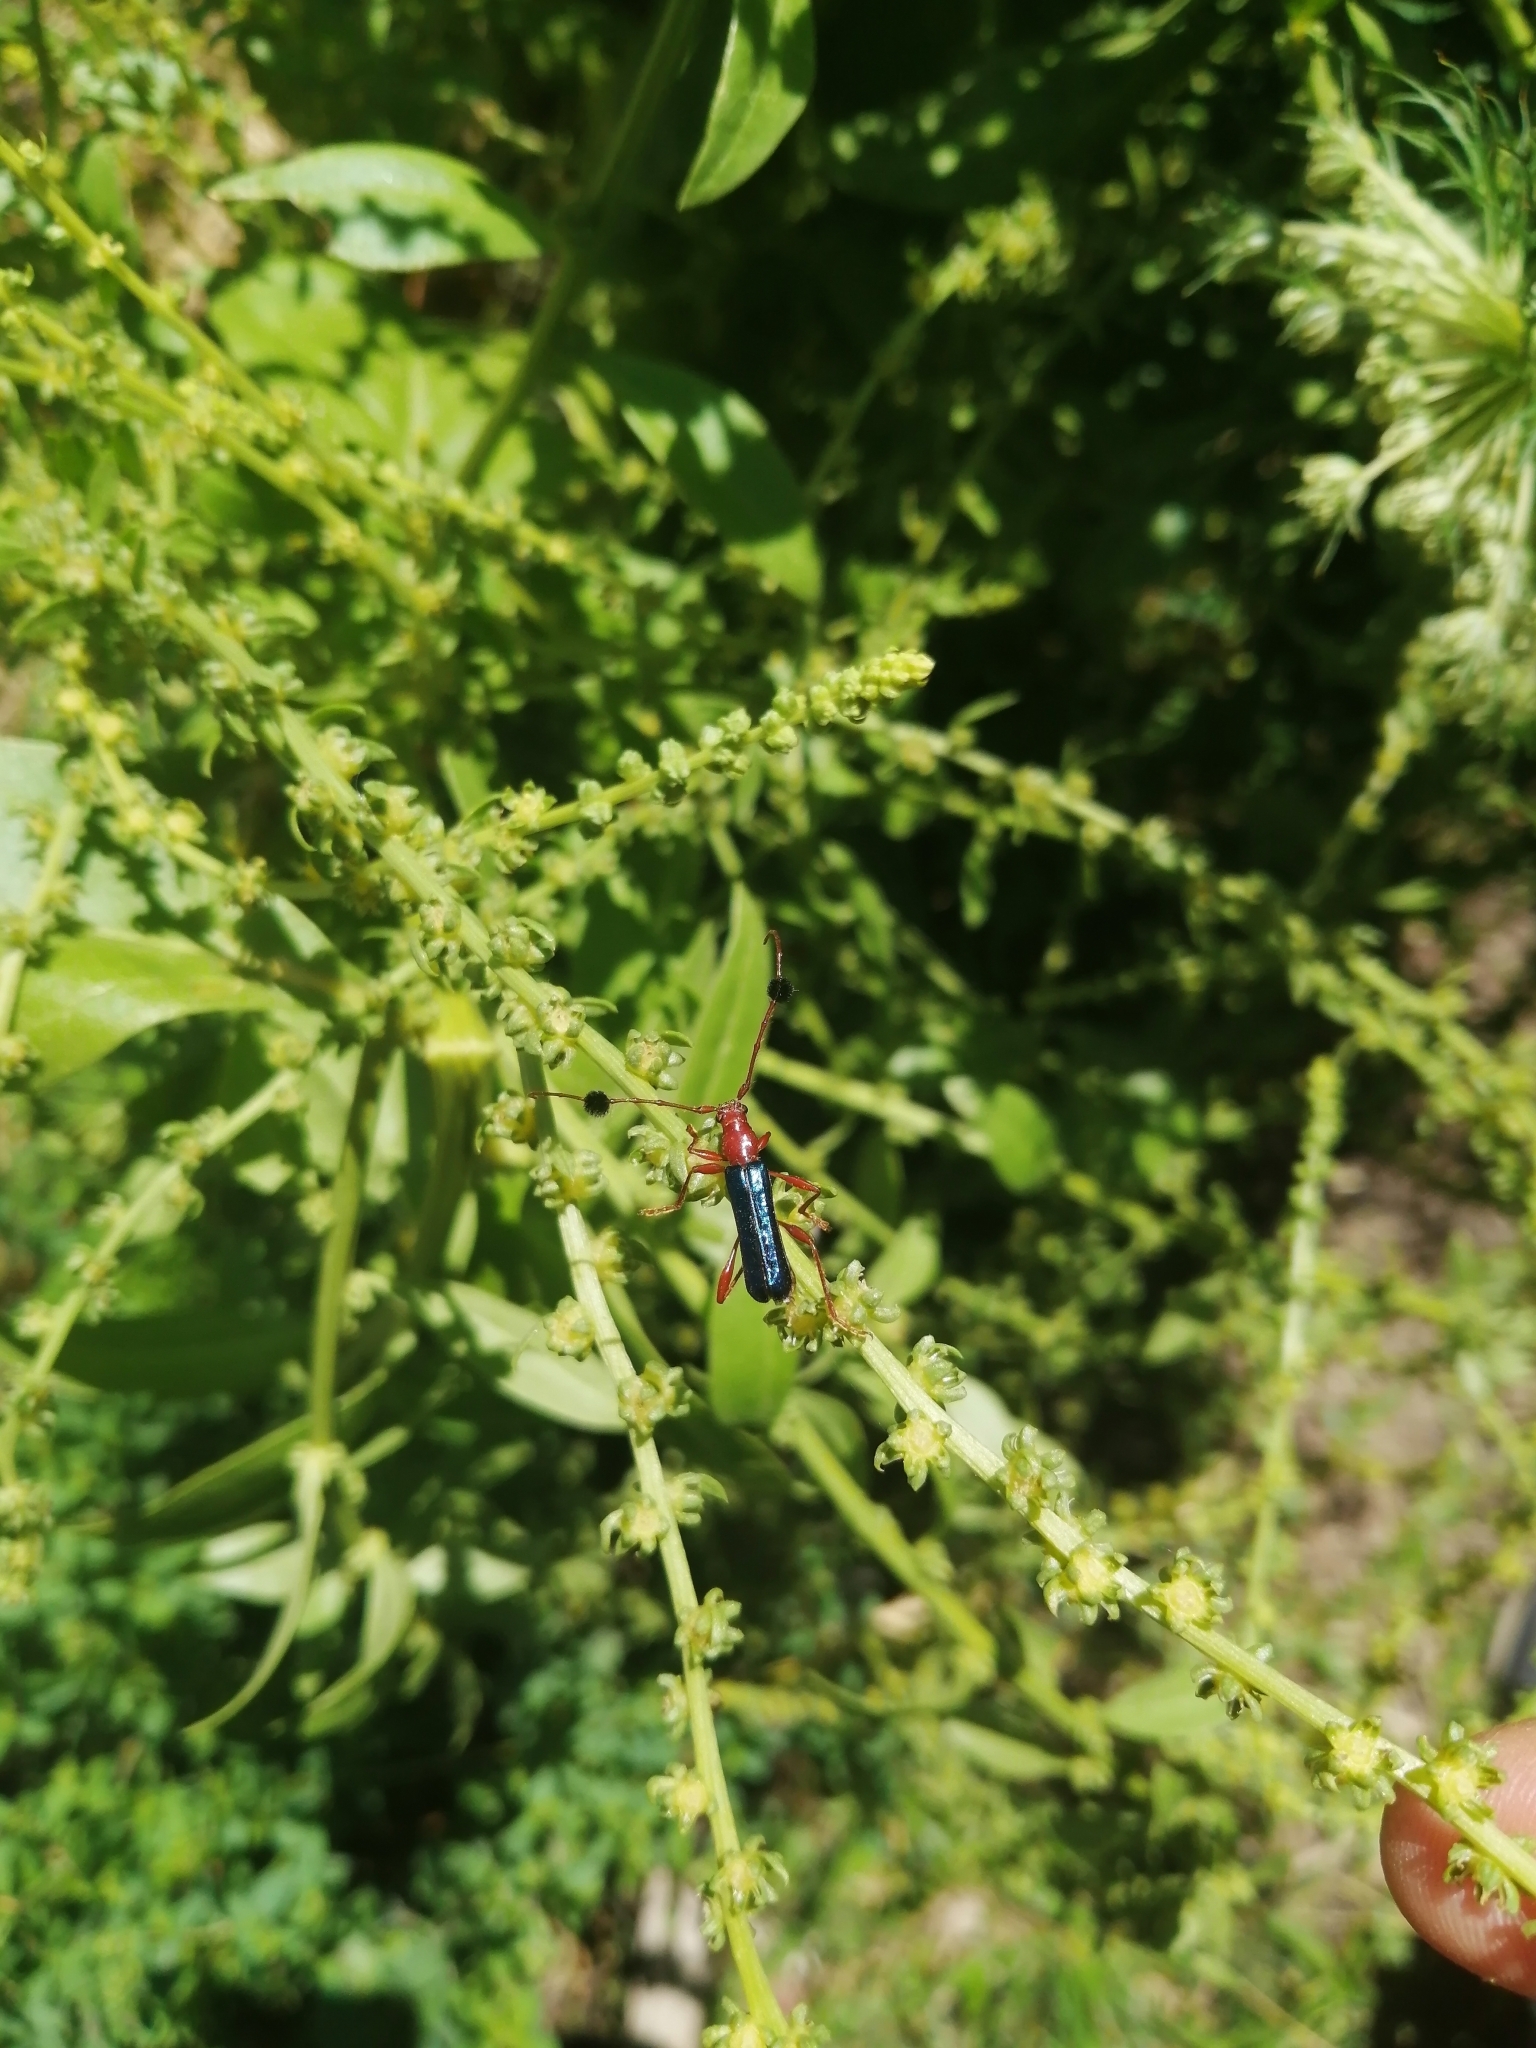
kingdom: Animalia
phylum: Arthropoda
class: Insecta
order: Coleoptera
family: Cerambycidae
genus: Paromoeocerus
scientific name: Paromoeocerus barbicornis
